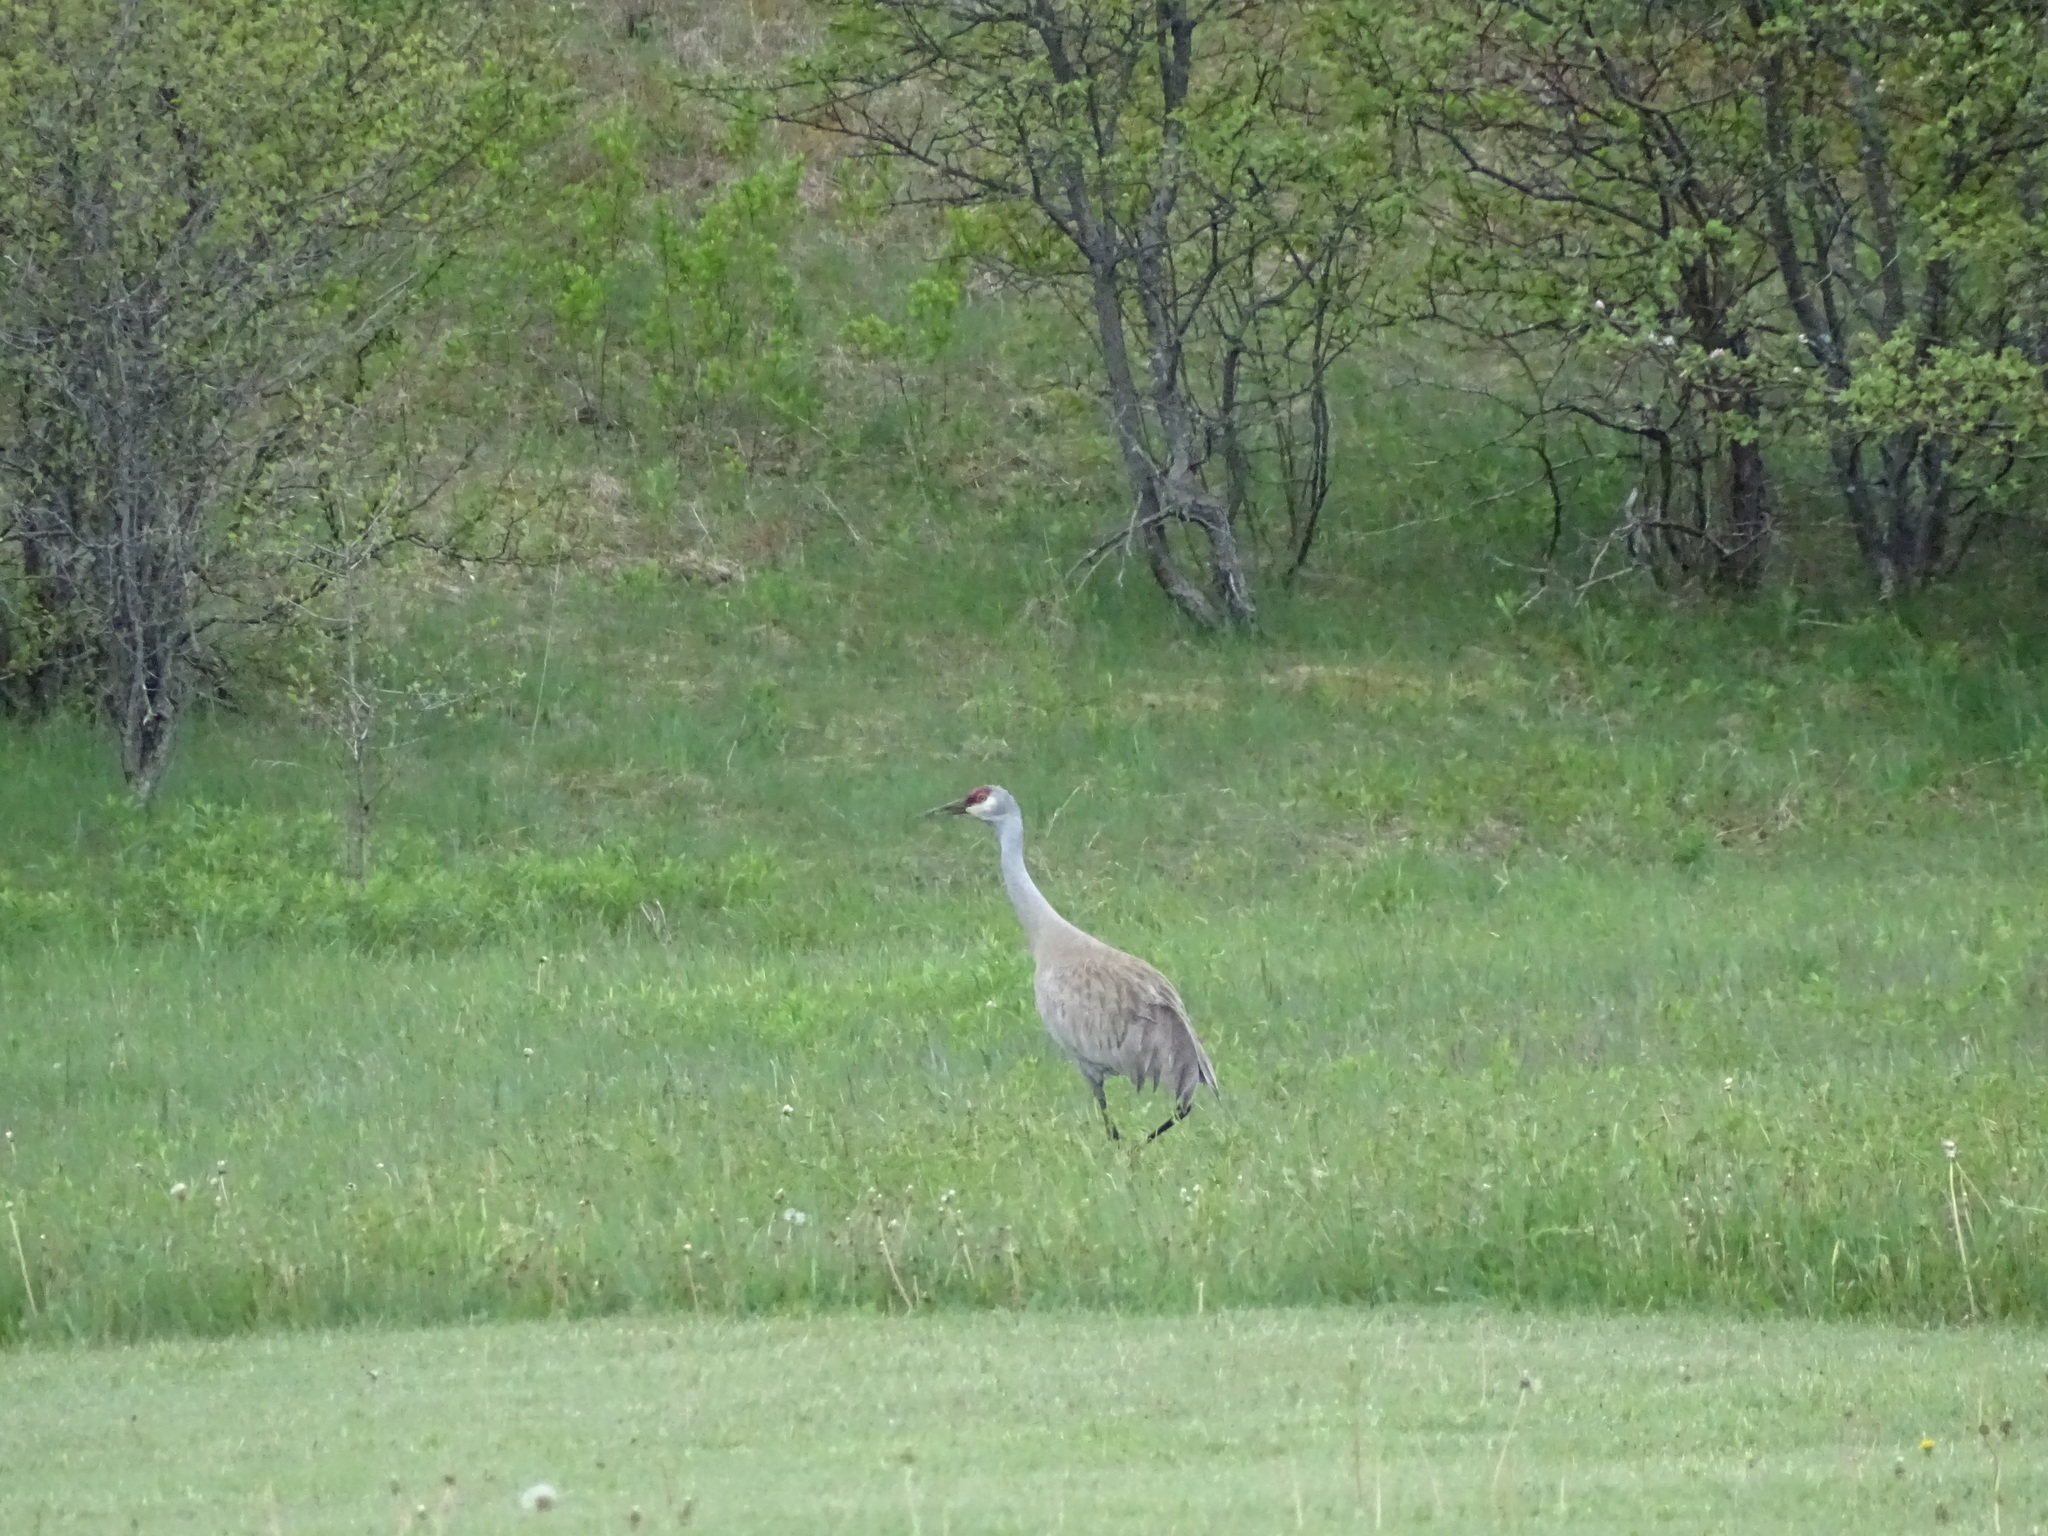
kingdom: Animalia
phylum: Chordata
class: Aves
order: Gruiformes
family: Gruidae
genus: Grus
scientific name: Grus canadensis
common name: Sandhill crane
